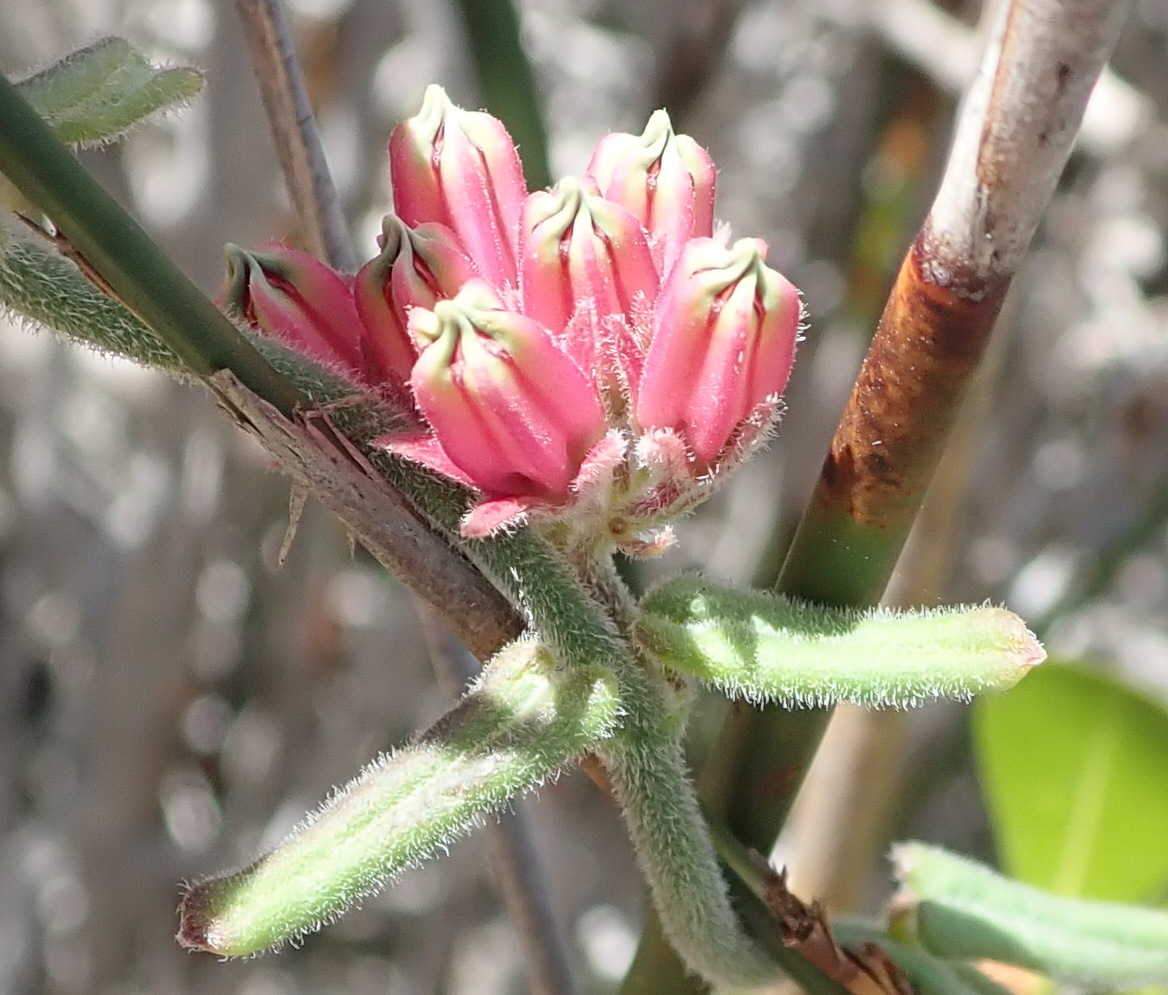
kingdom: Plantae
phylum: Tracheophyta
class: Magnoliopsida
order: Gentianales
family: Apocynaceae
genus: Microloma
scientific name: Microloma sagittatum
